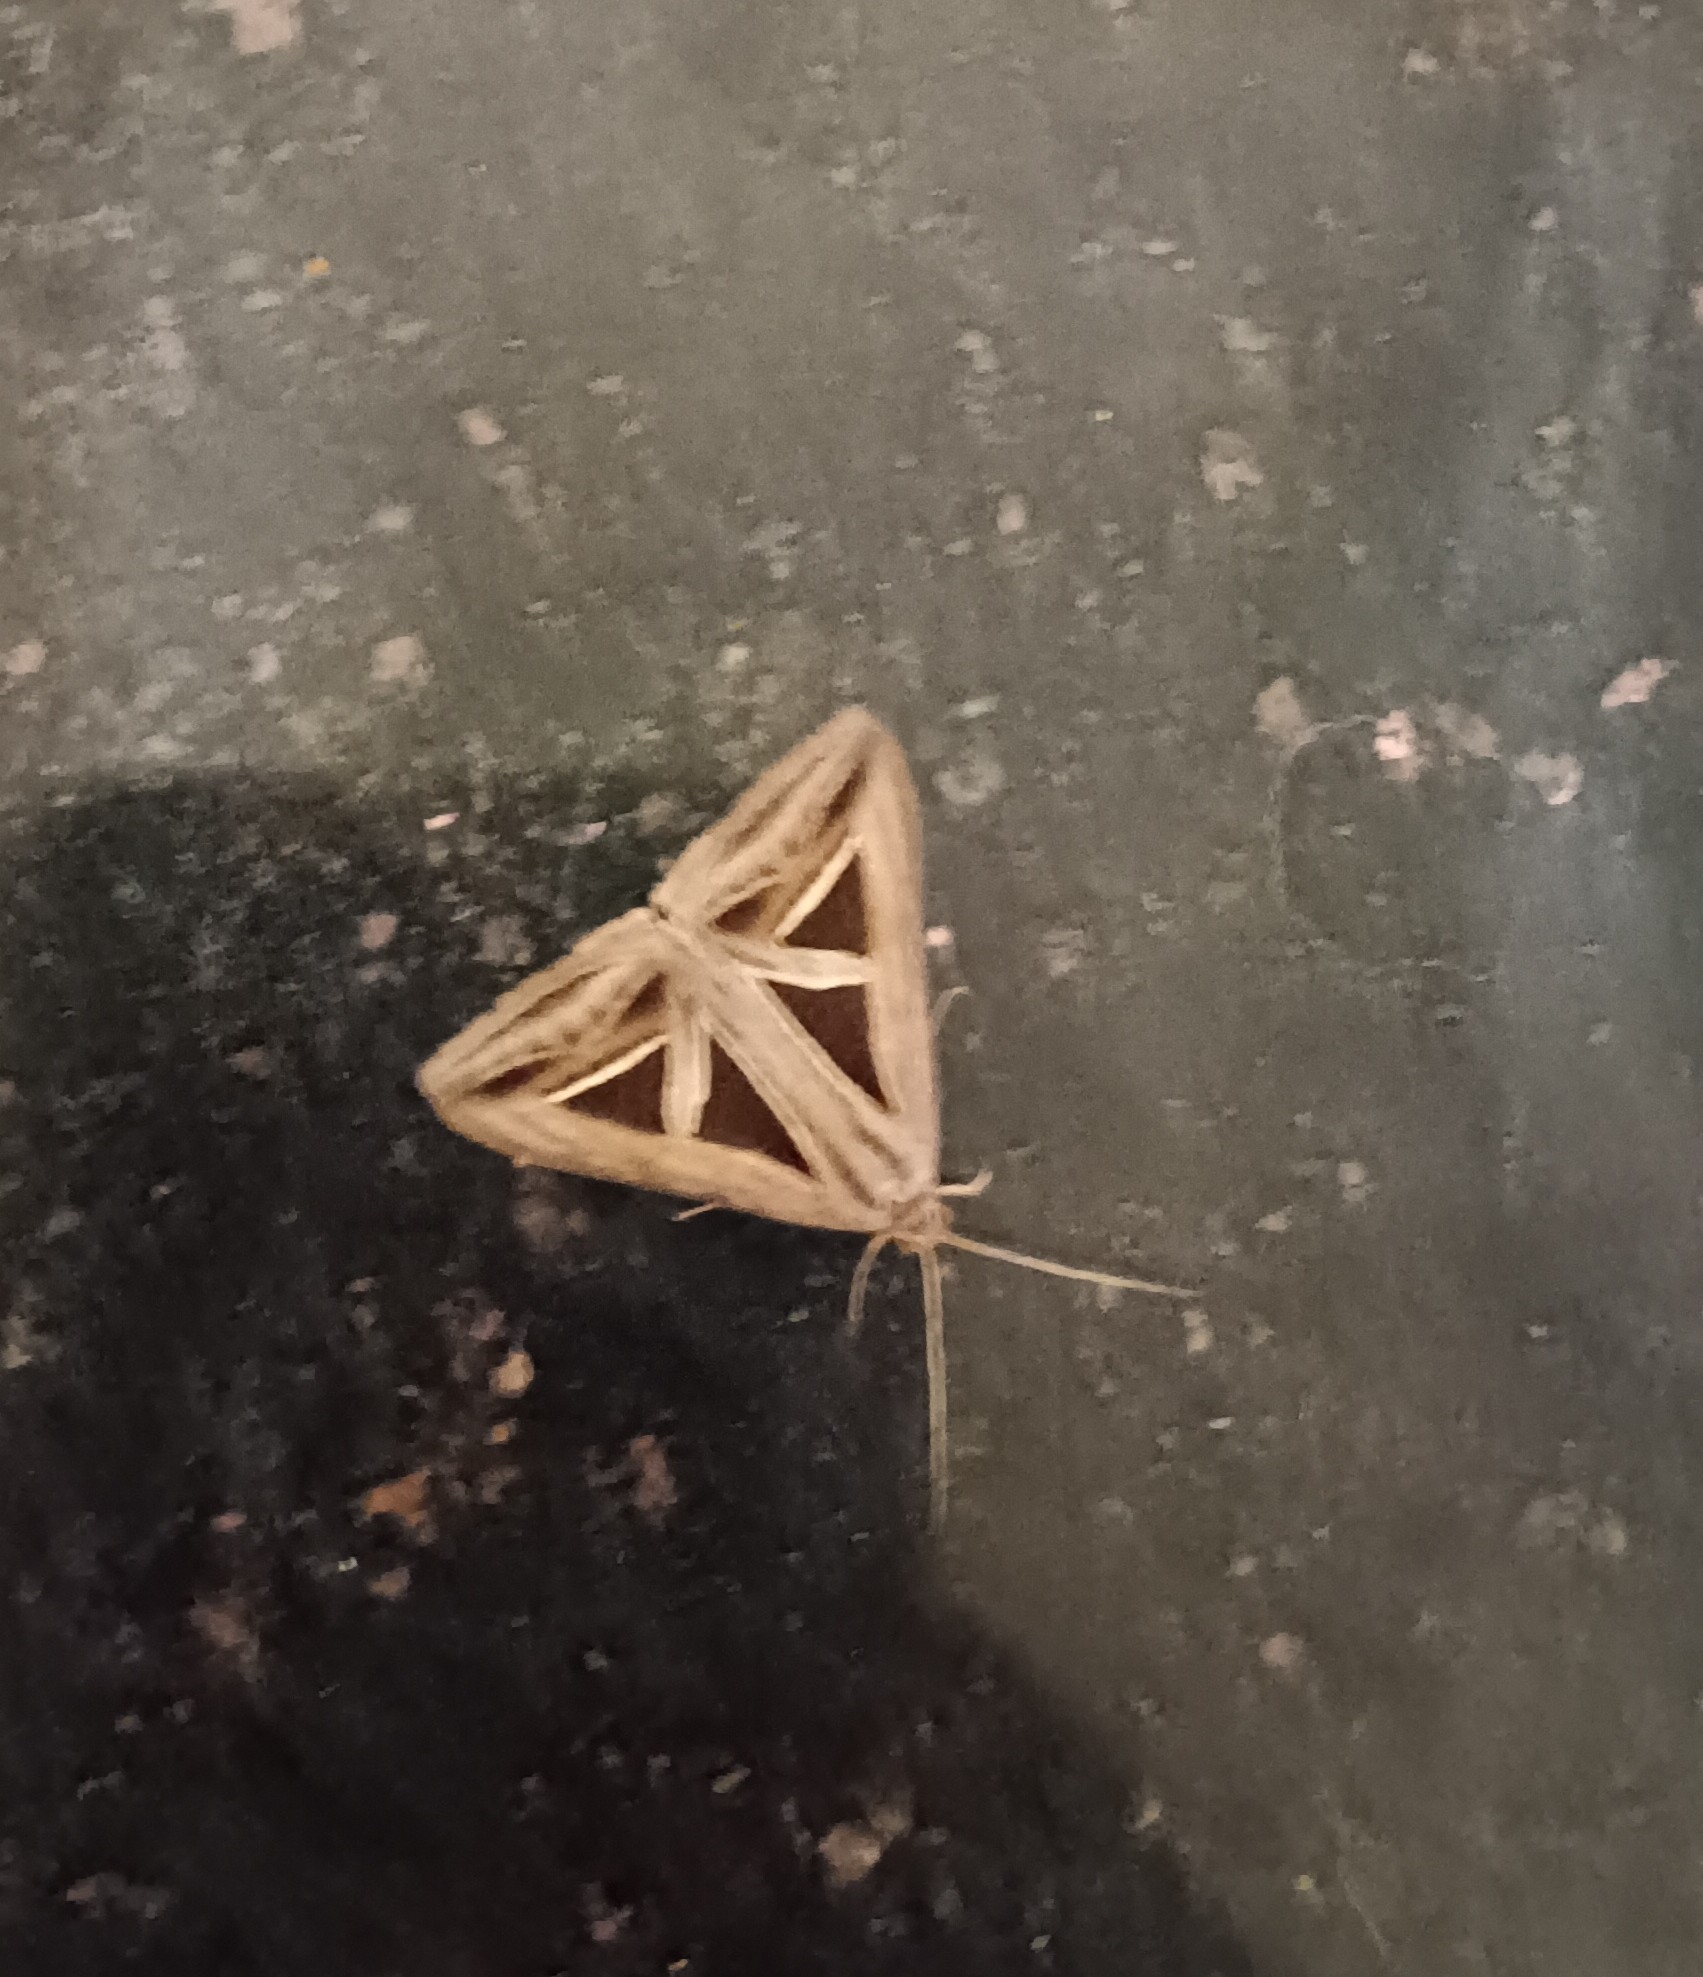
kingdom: Animalia
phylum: Arthropoda
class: Insecta
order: Lepidoptera
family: Erebidae
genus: Trigonodes
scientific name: Trigonodes hyppasia
